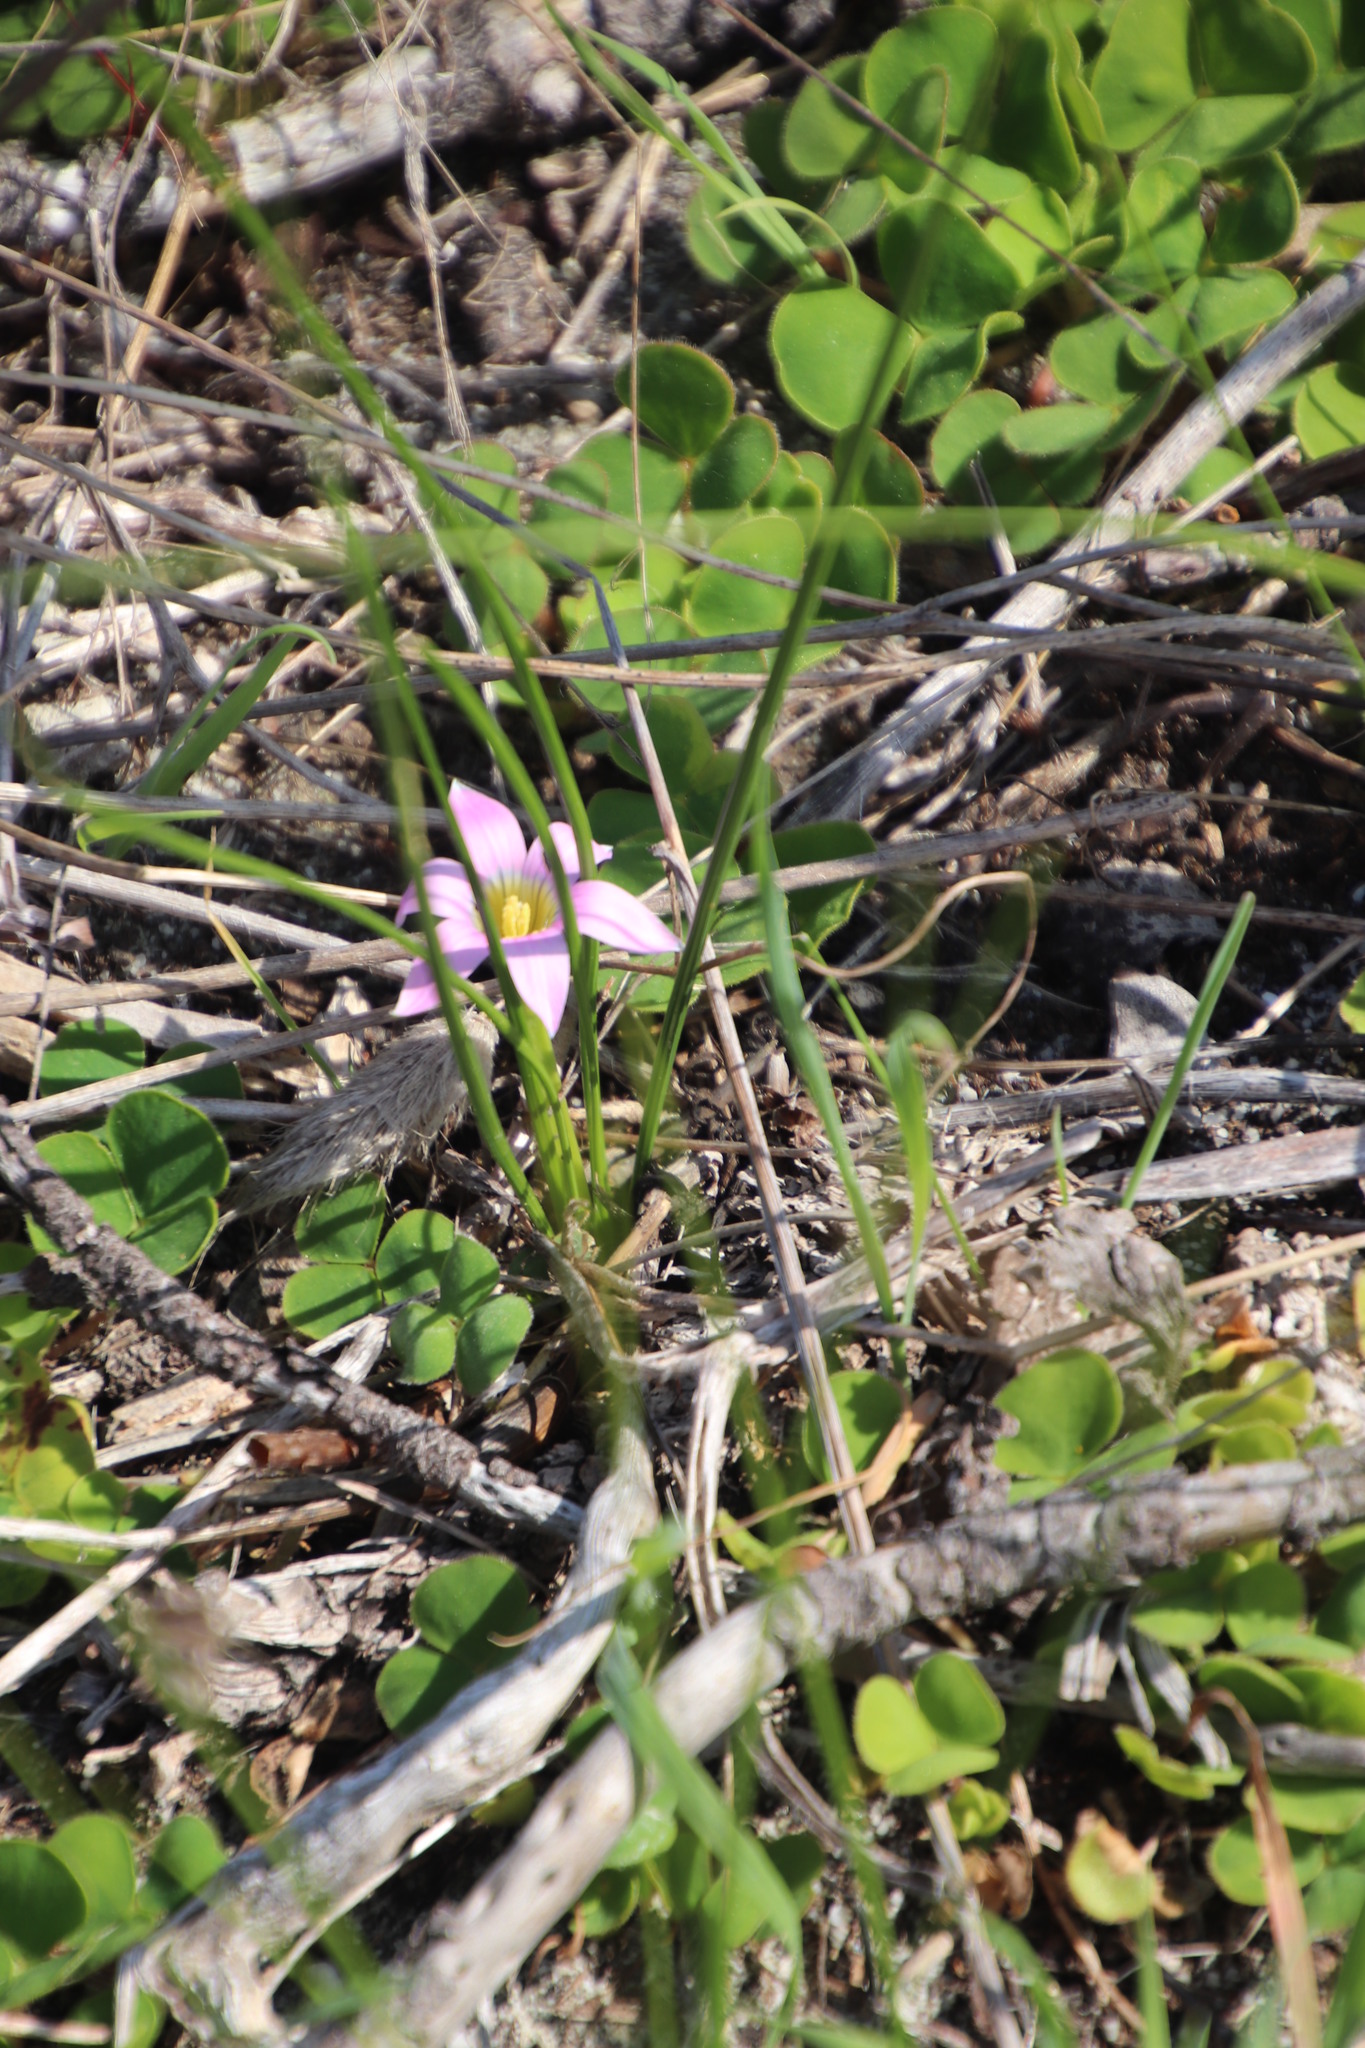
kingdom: Plantae
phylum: Tracheophyta
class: Liliopsida
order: Asparagales
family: Iridaceae
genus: Romulea
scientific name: Romulea rosea
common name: Oniongrass
